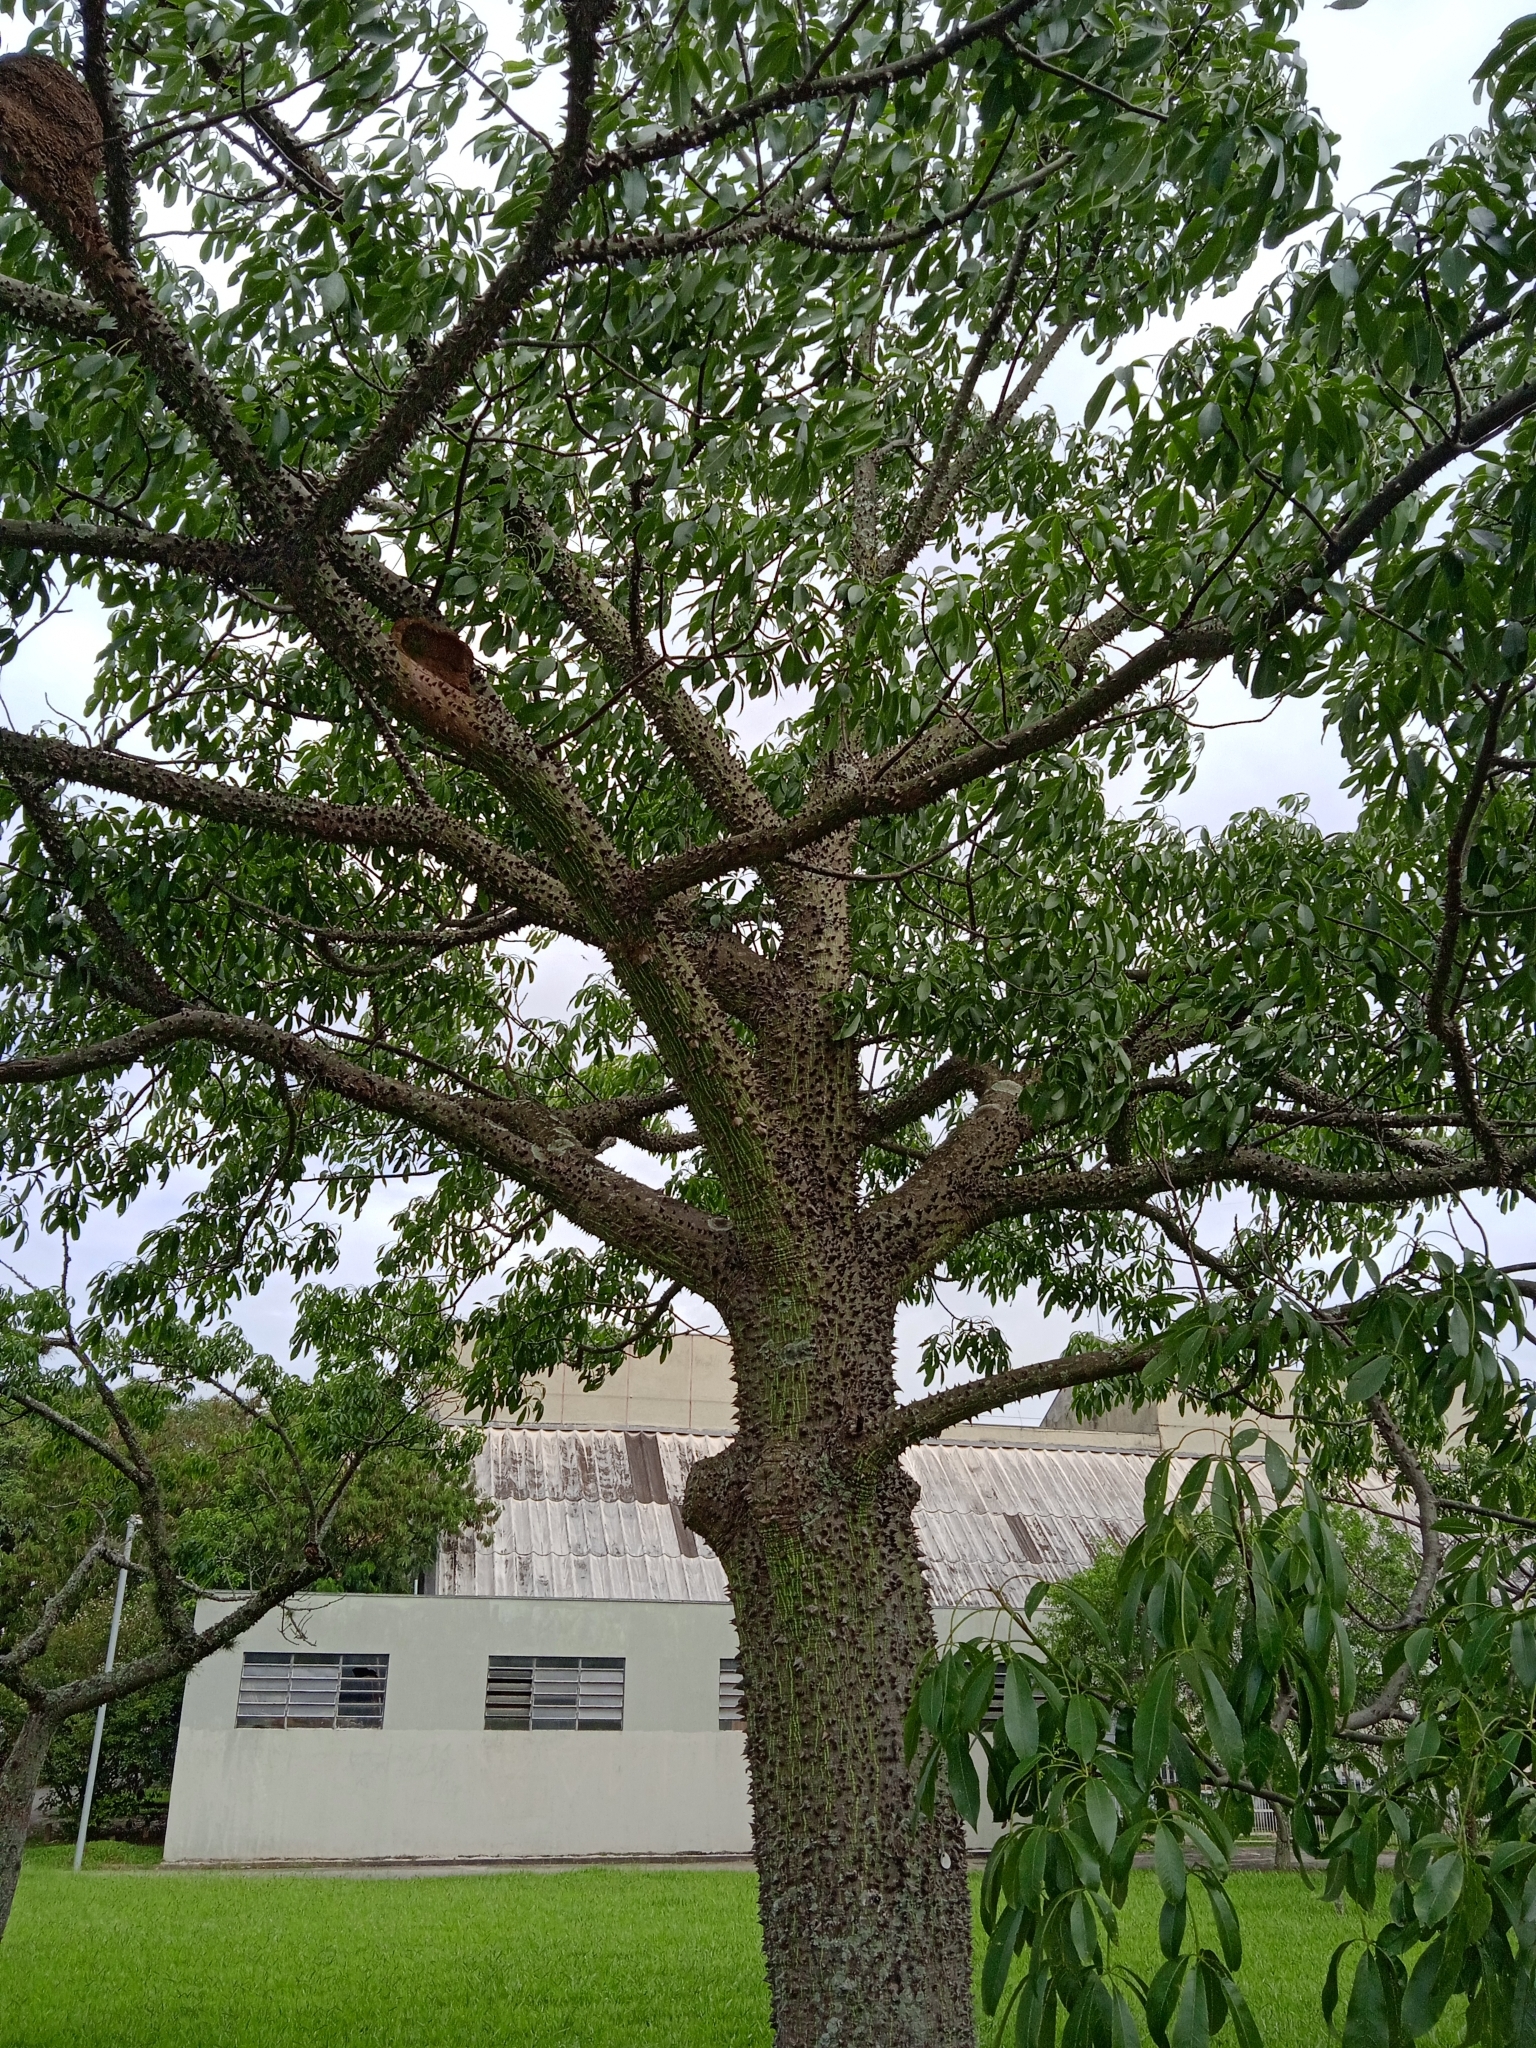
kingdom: Plantae
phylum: Tracheophyta
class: Magnoliopsida
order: Malvales
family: Malvaceae
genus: Ceiba
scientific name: Ceiba speciosa
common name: Silk-floss tree
